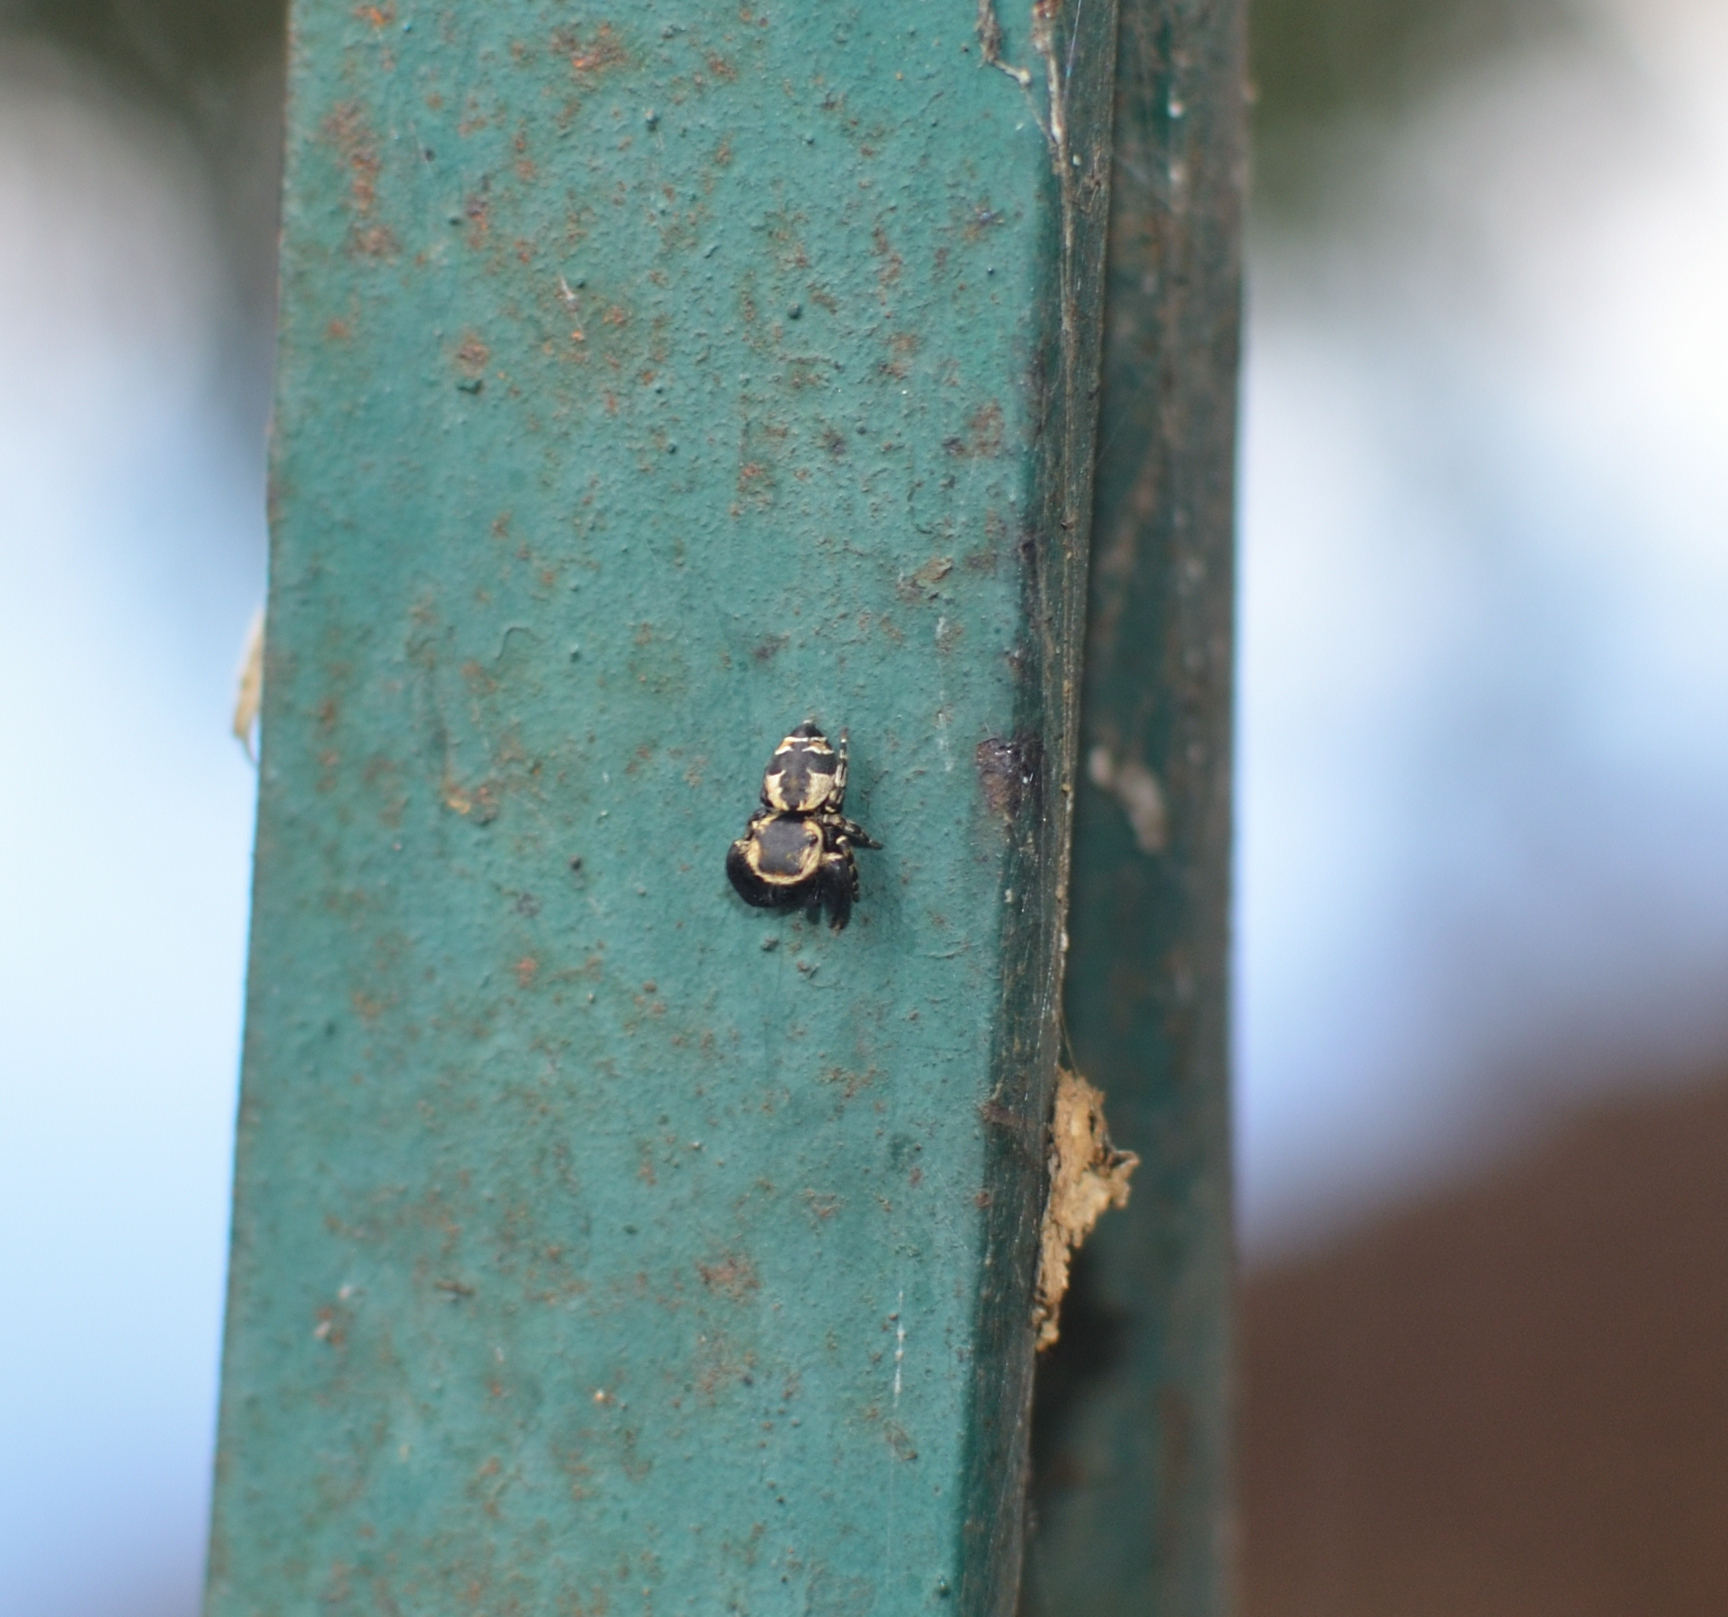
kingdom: Animalia
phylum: Arthropoda
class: Arachnida
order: Araneae
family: Salticidae
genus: Rhene
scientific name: Rhene flavicomans
